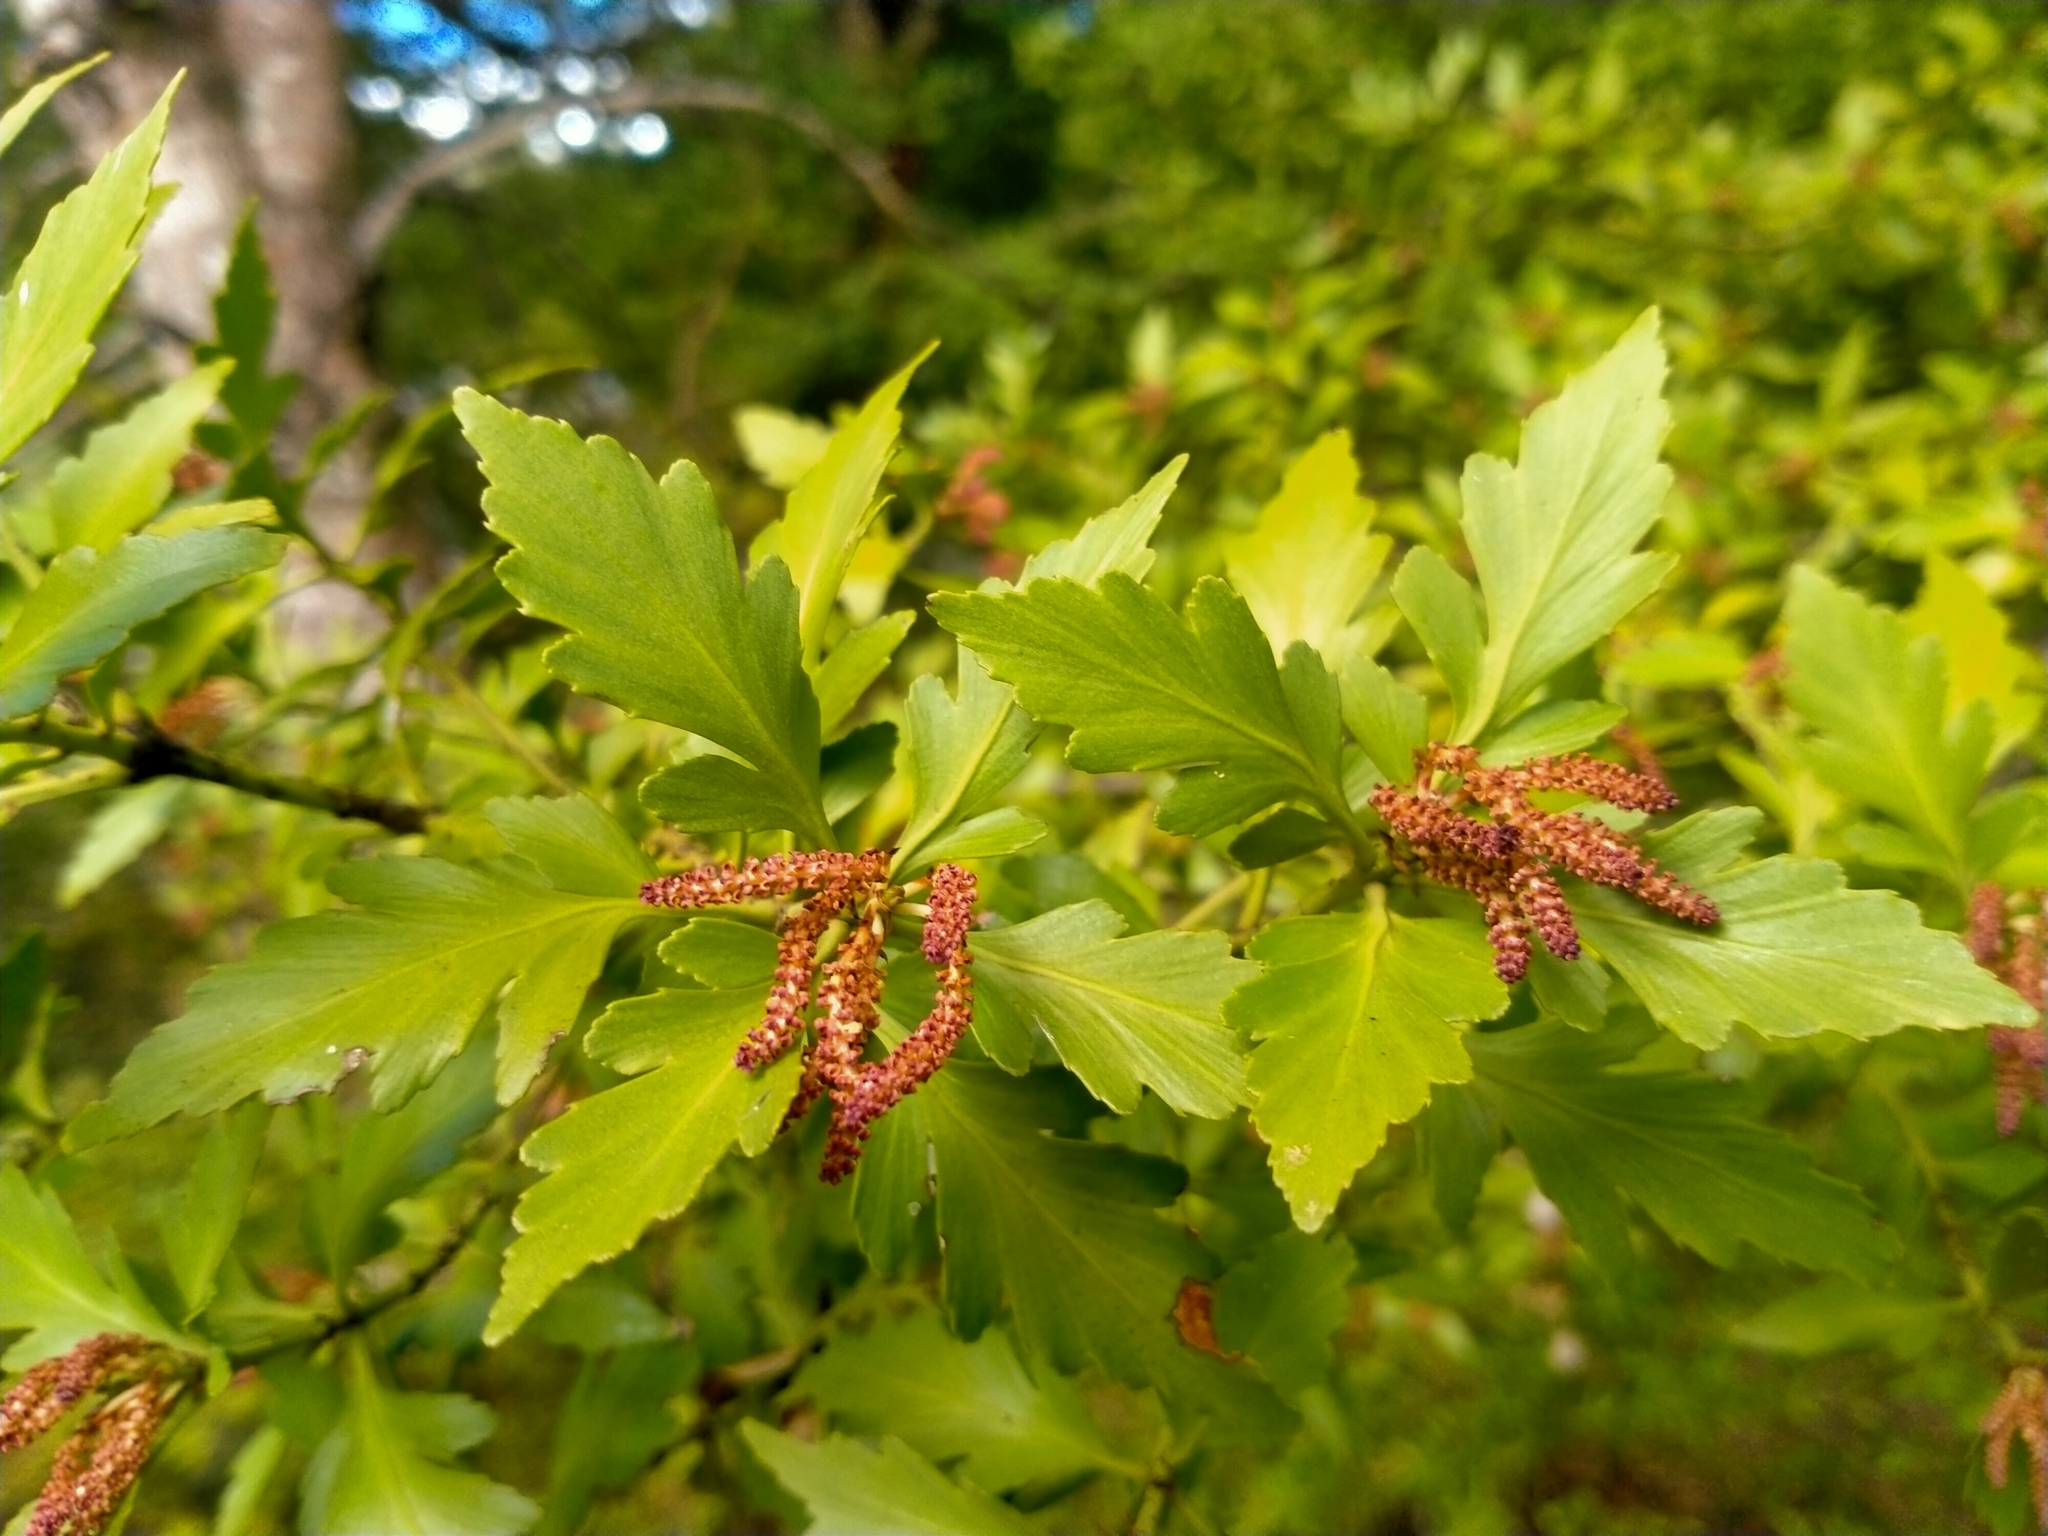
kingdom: Plantae
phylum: Tracheophyta
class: Pinopsida
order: Pinales
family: Phyllocladaceae
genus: Phyllocladus
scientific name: Phyllocladus trichomanoides
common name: Celery pine
